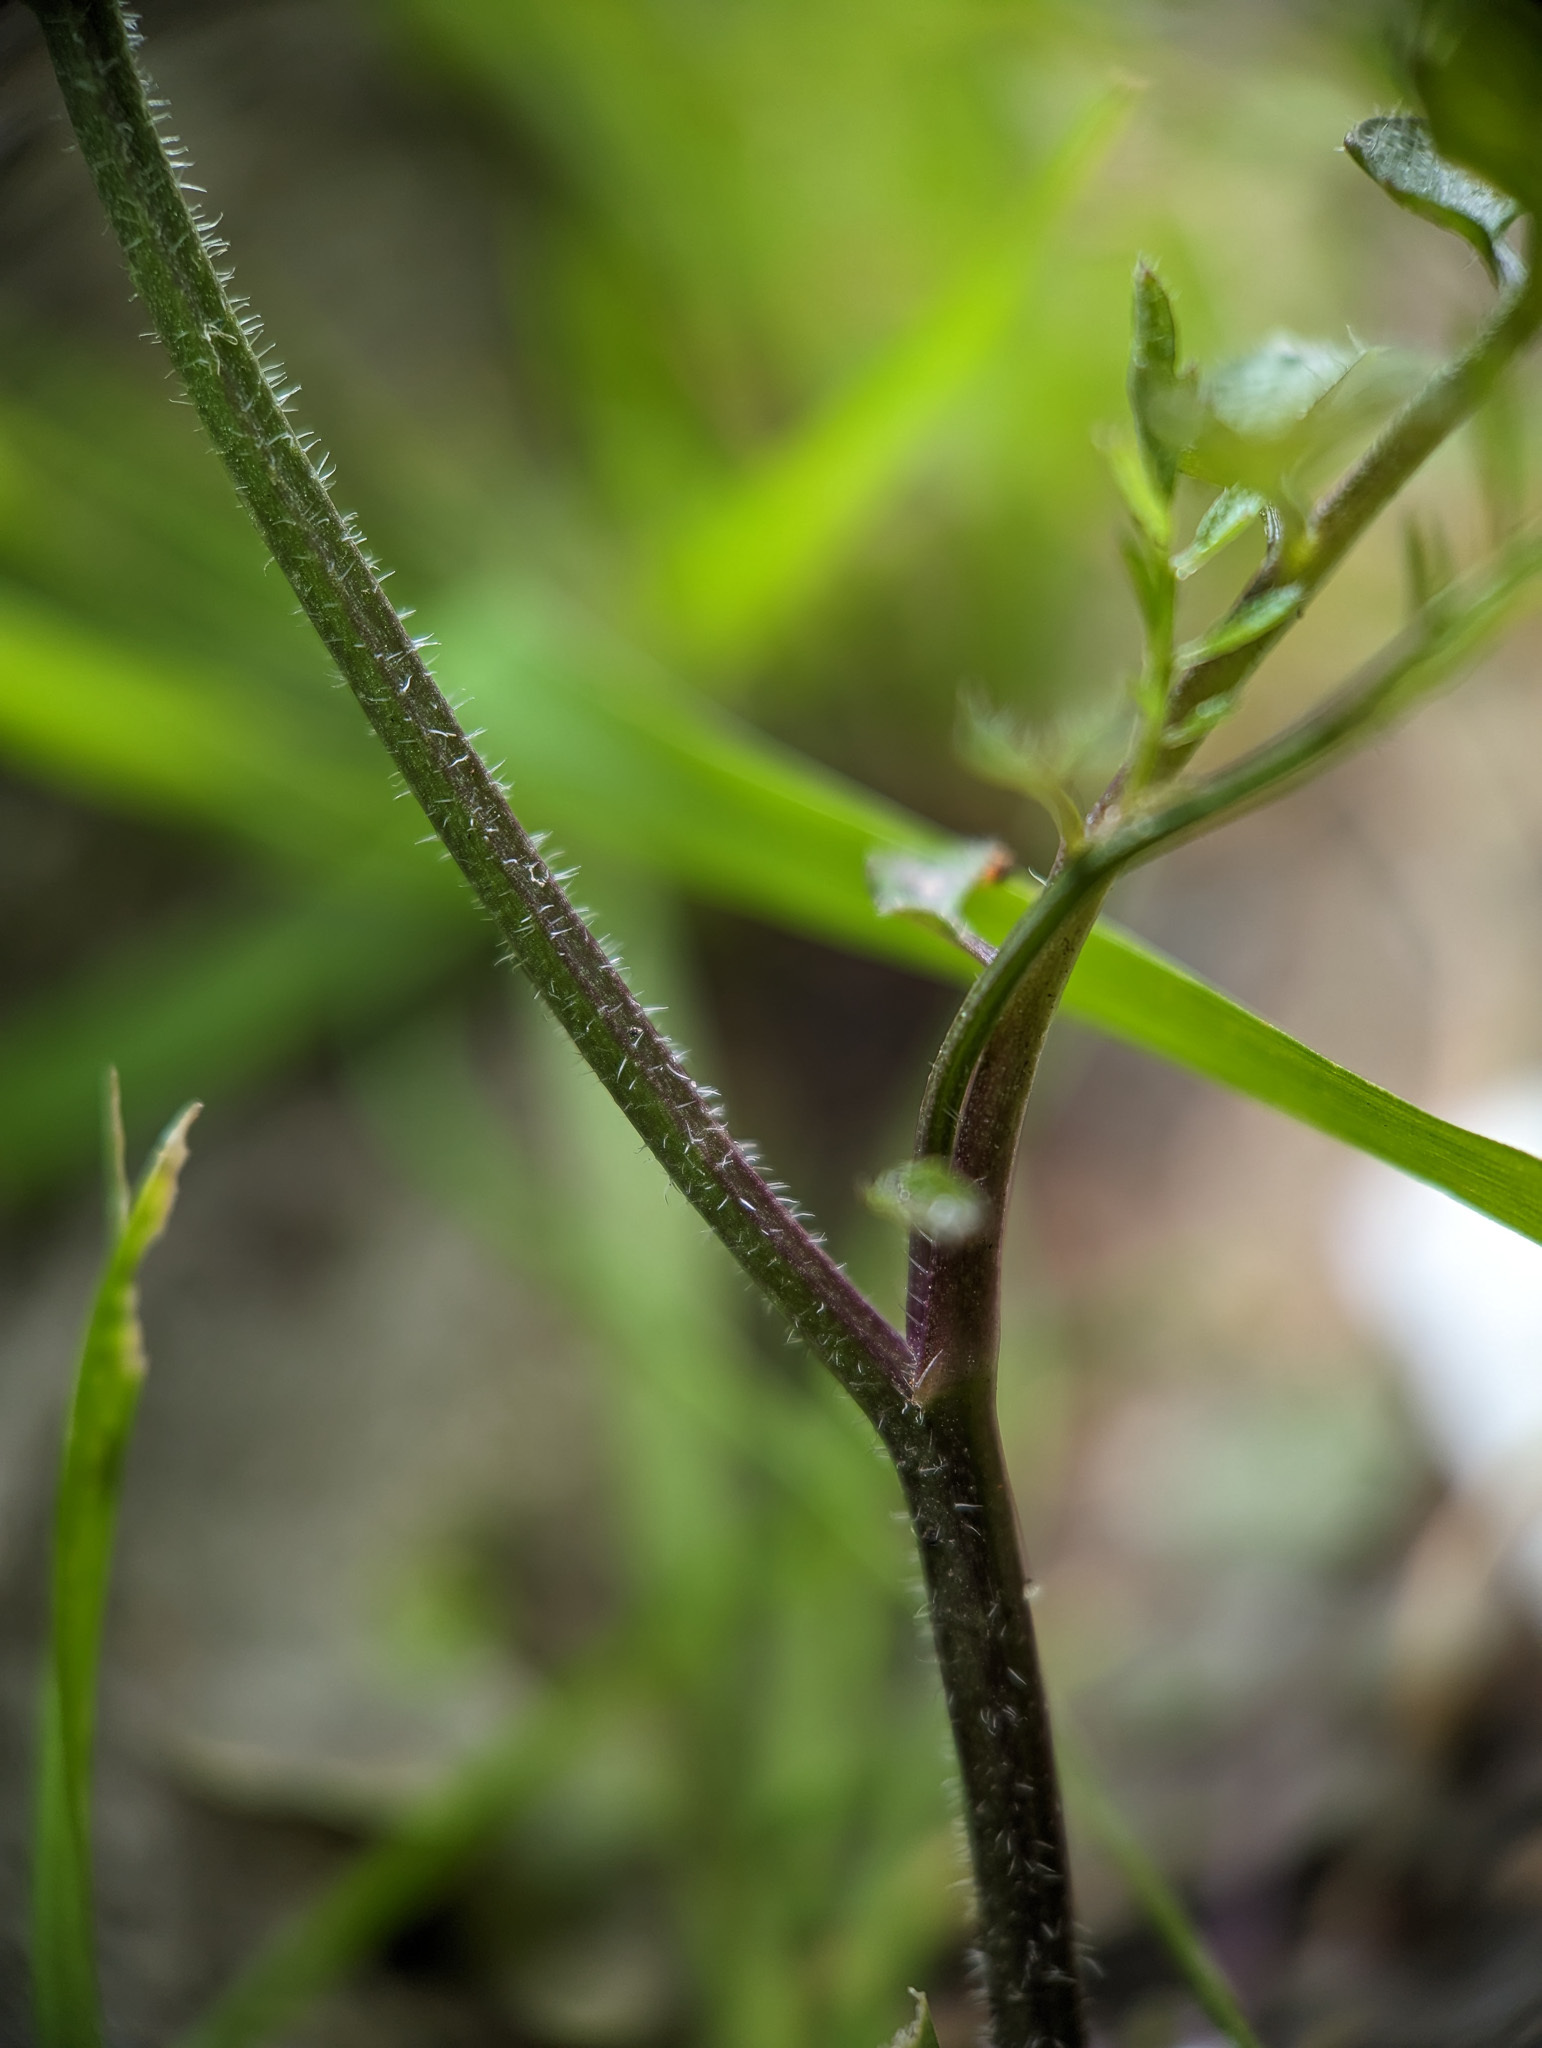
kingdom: Plantae
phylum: Tracheophyta
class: Magnoliopsida
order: Brassicales
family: Brassicaceae
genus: Cardamine
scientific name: Cardamine flexuosa
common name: Woodland bittercress
